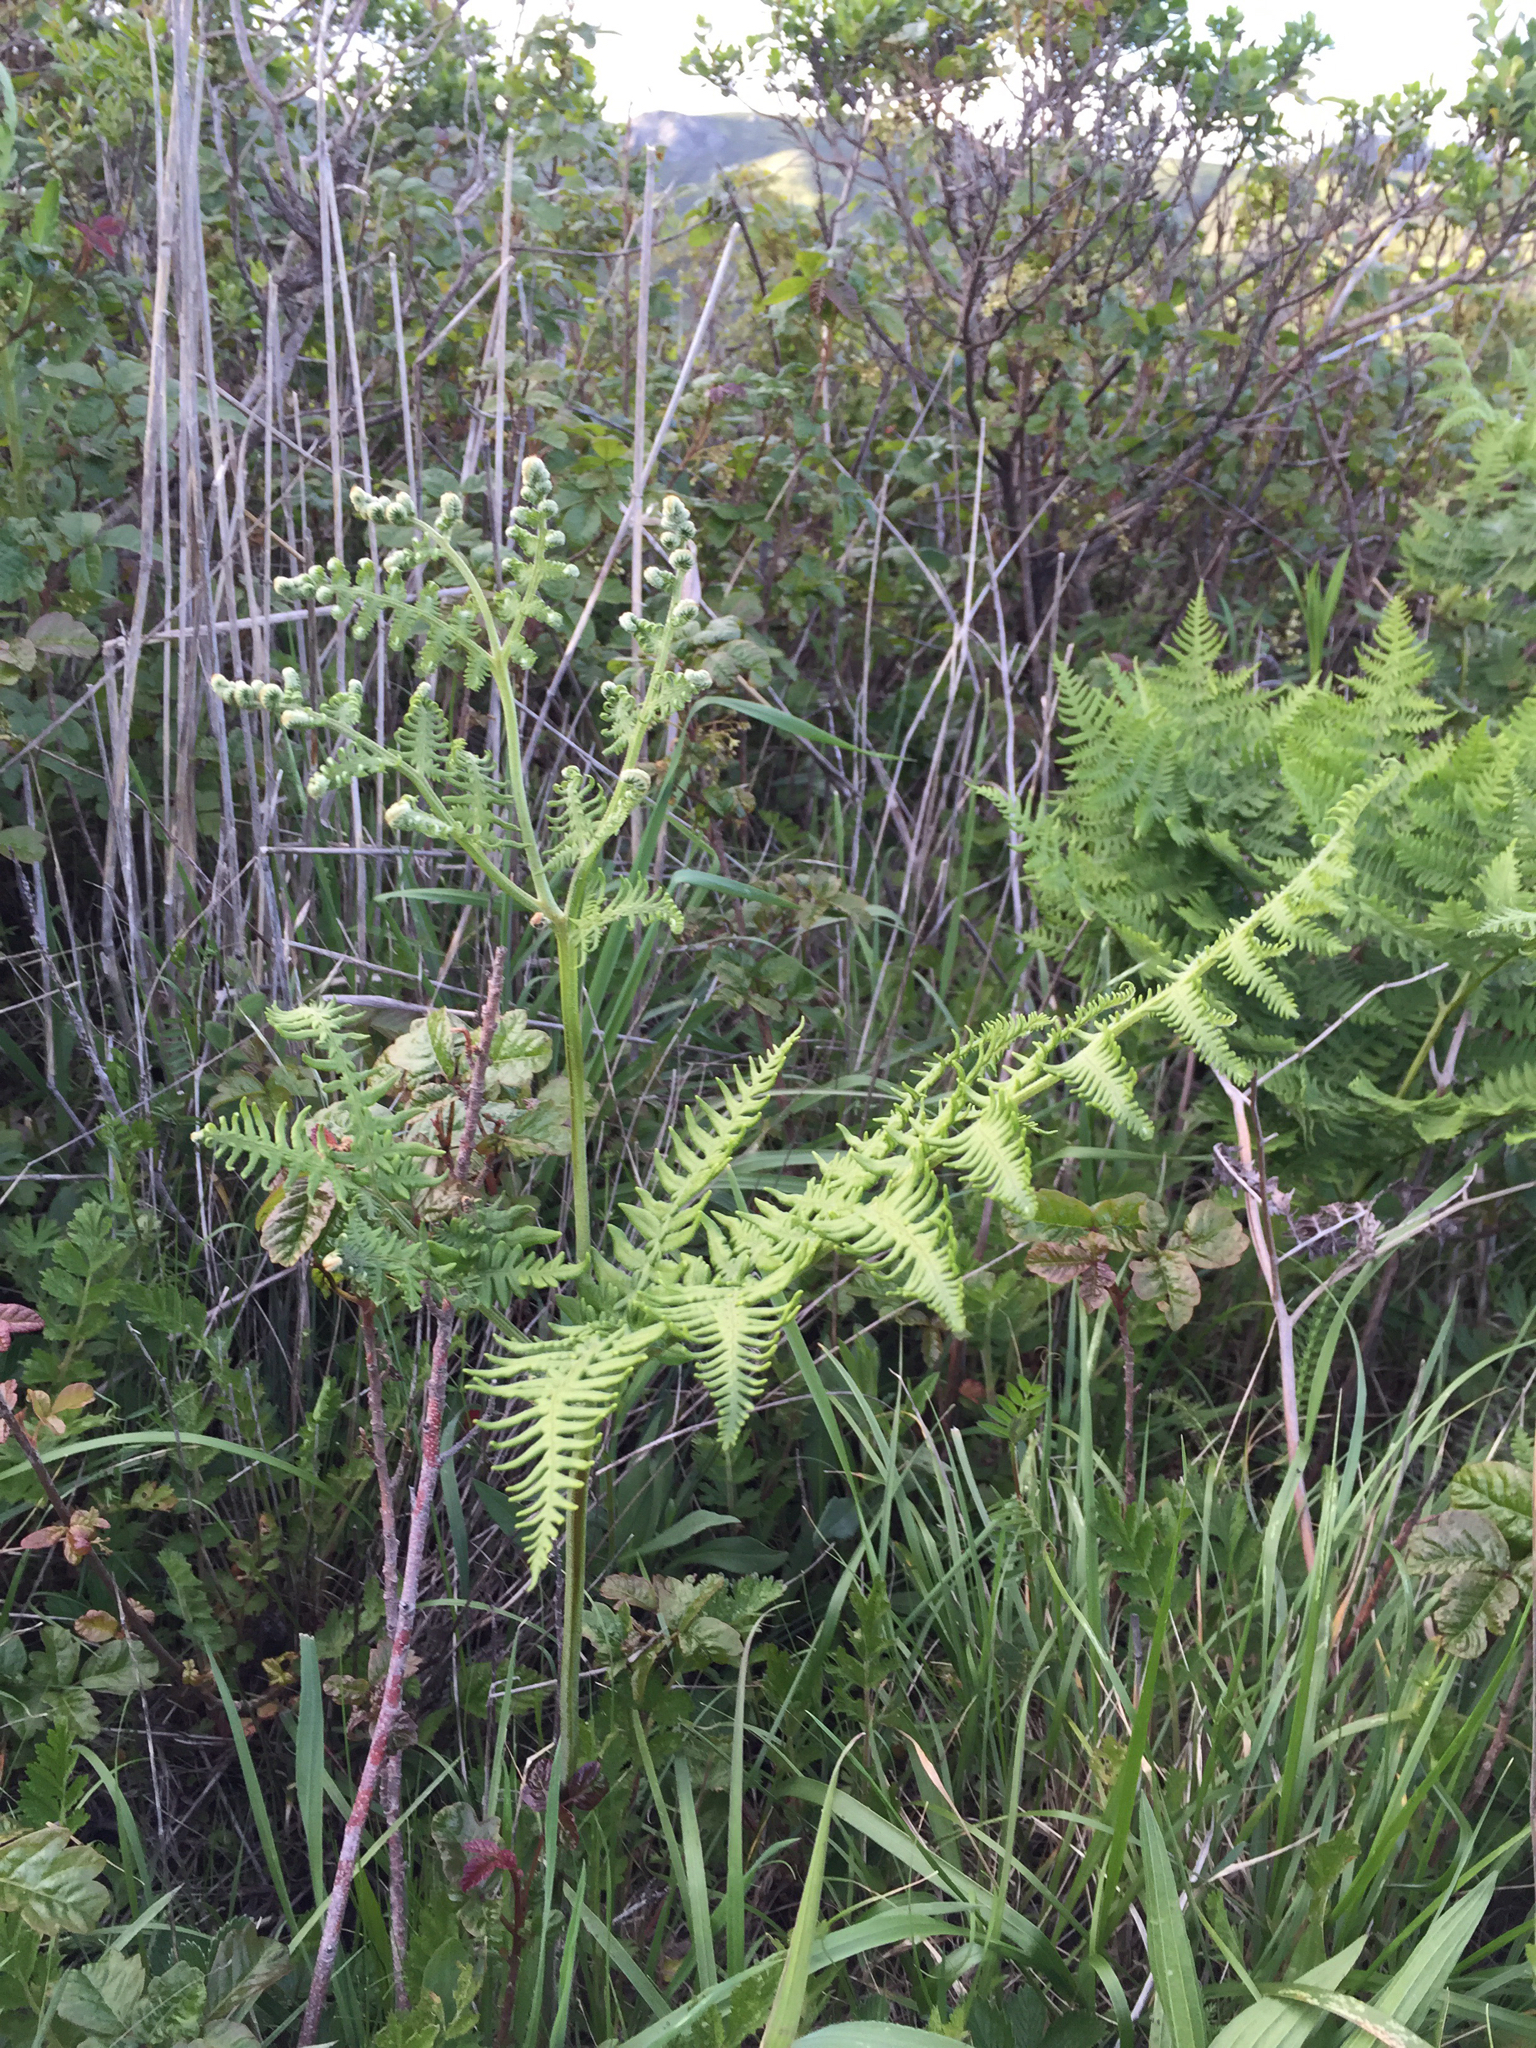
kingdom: Plantae
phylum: Tracheophyta
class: Polypodiopsida
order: Polypodiales
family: Dennstaedtiaceae
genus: Pteridium
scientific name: Pteridium aquilinum
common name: Bracken
